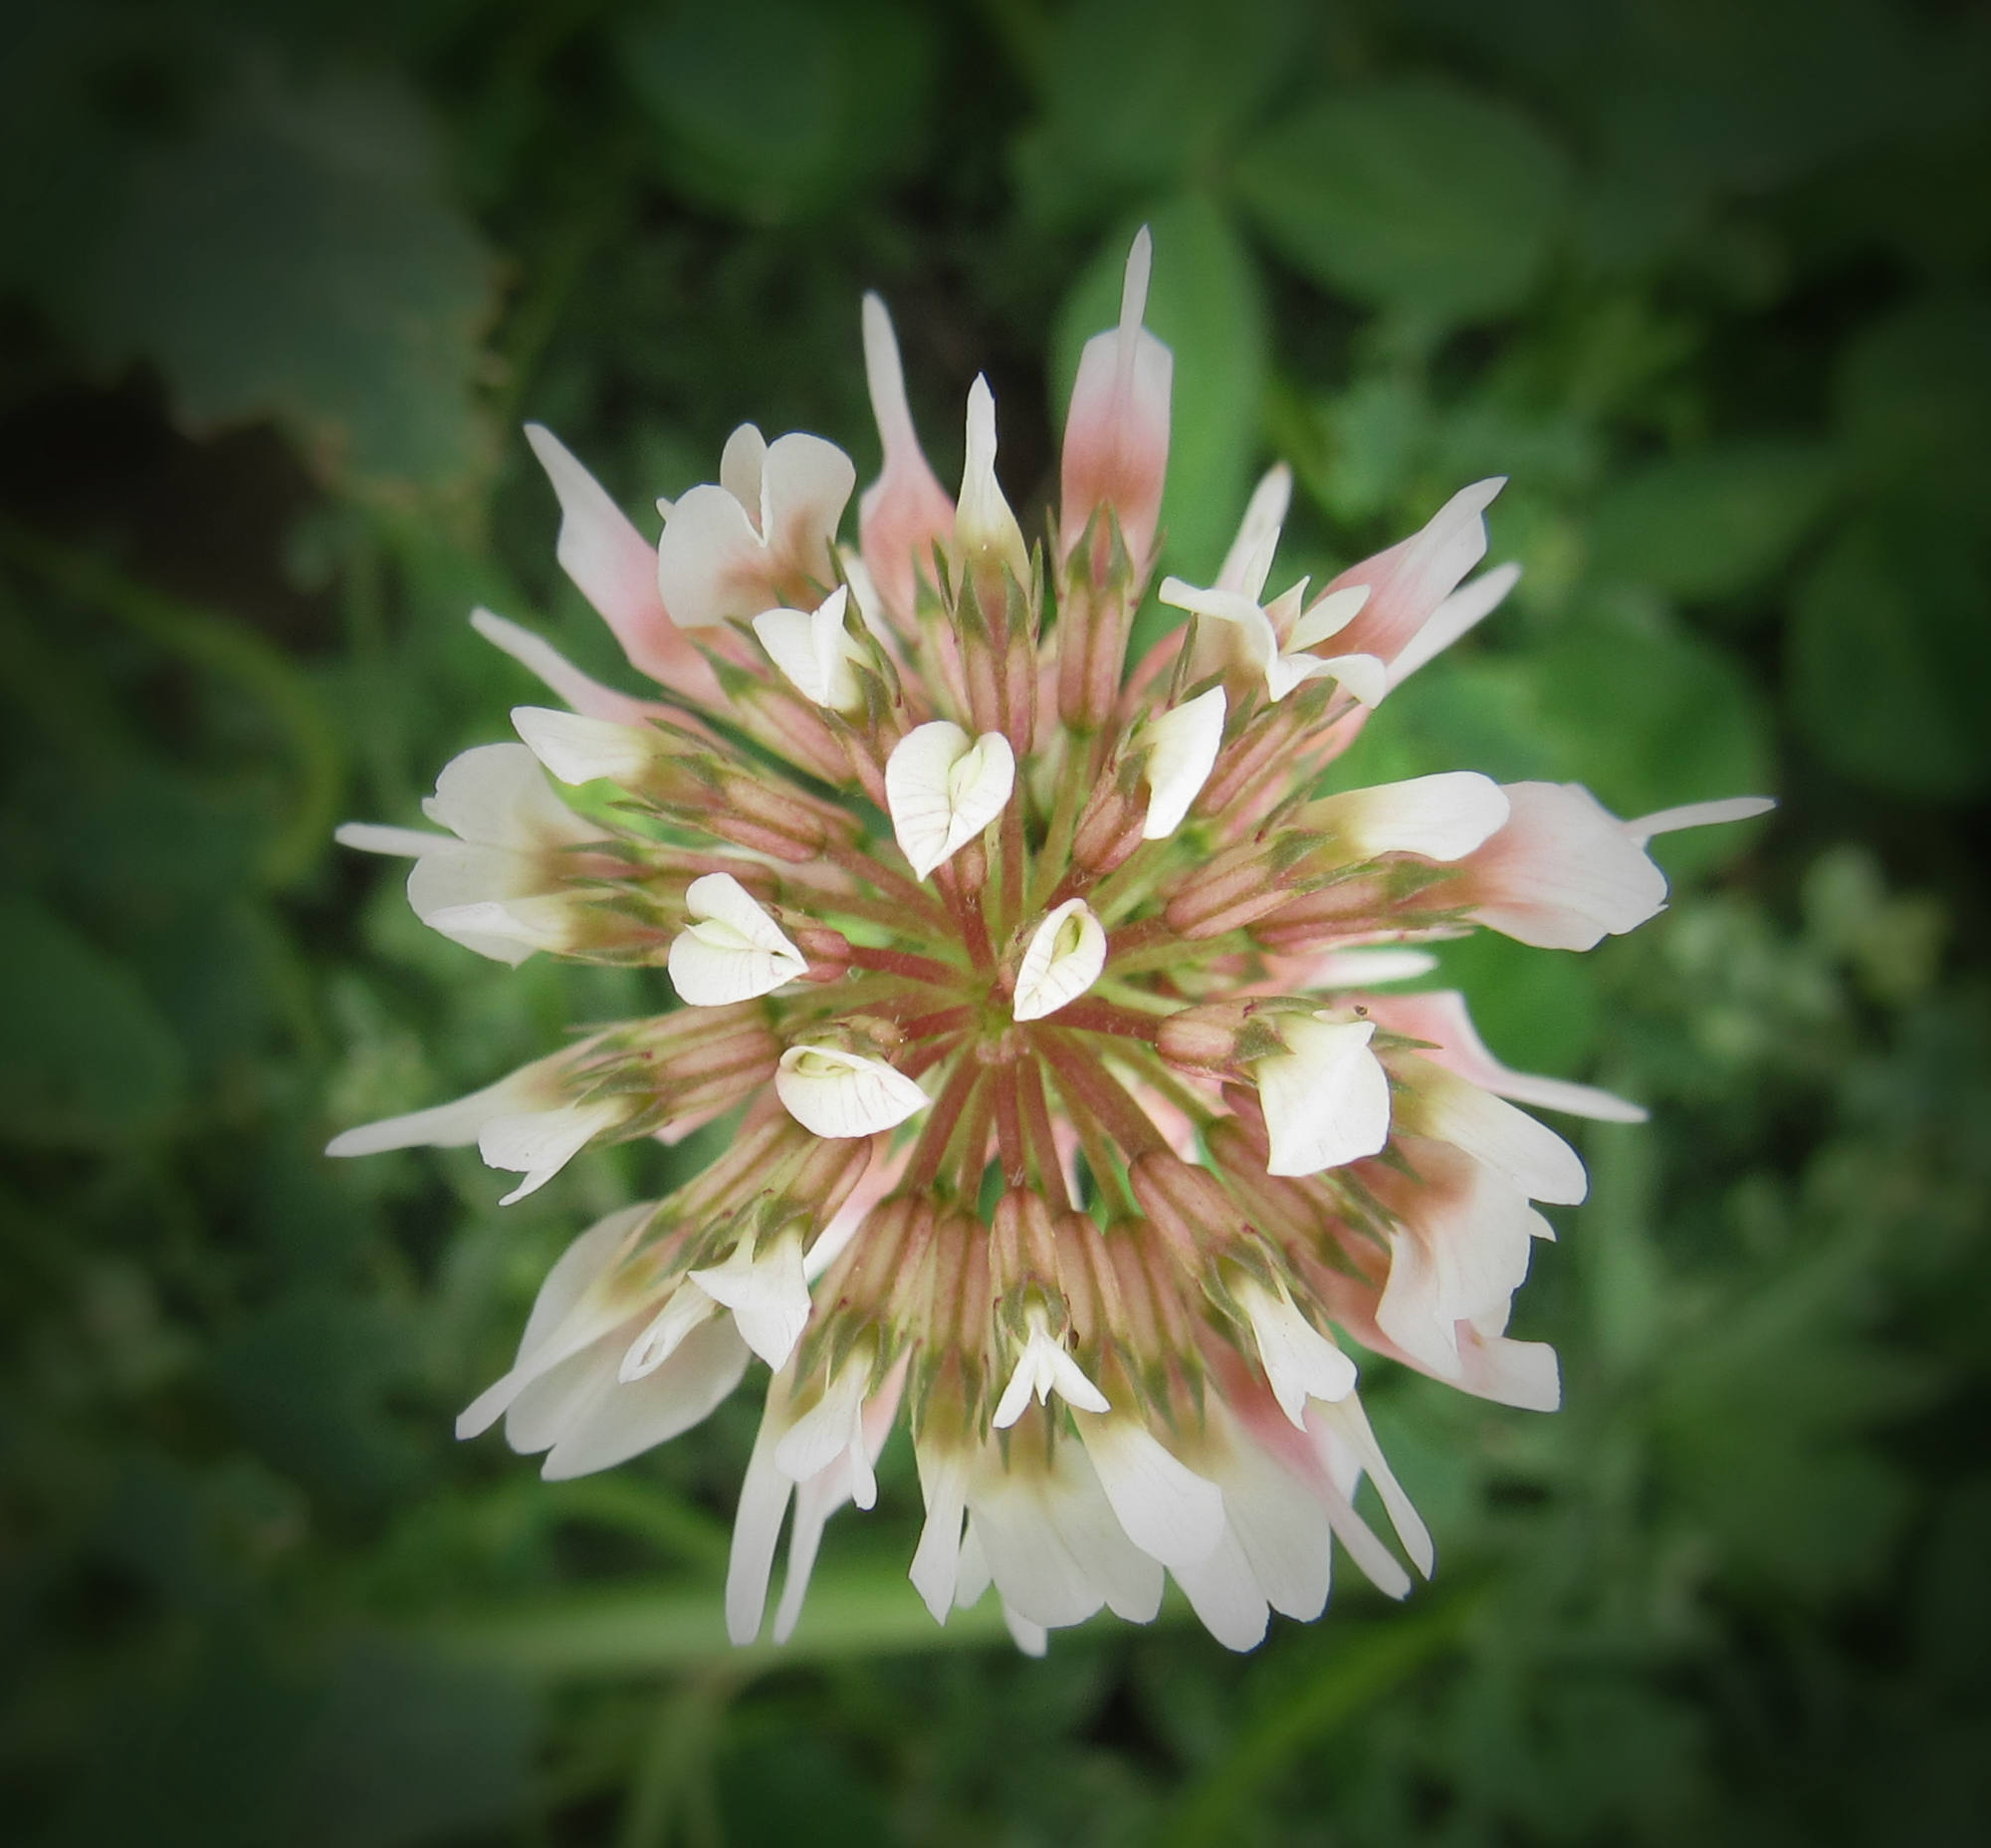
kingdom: Plantae
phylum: Tracheophyta
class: Magnoliopsida
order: Fabales
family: Fabaceae
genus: Trifolium
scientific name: Trifolium repens
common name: White clover
